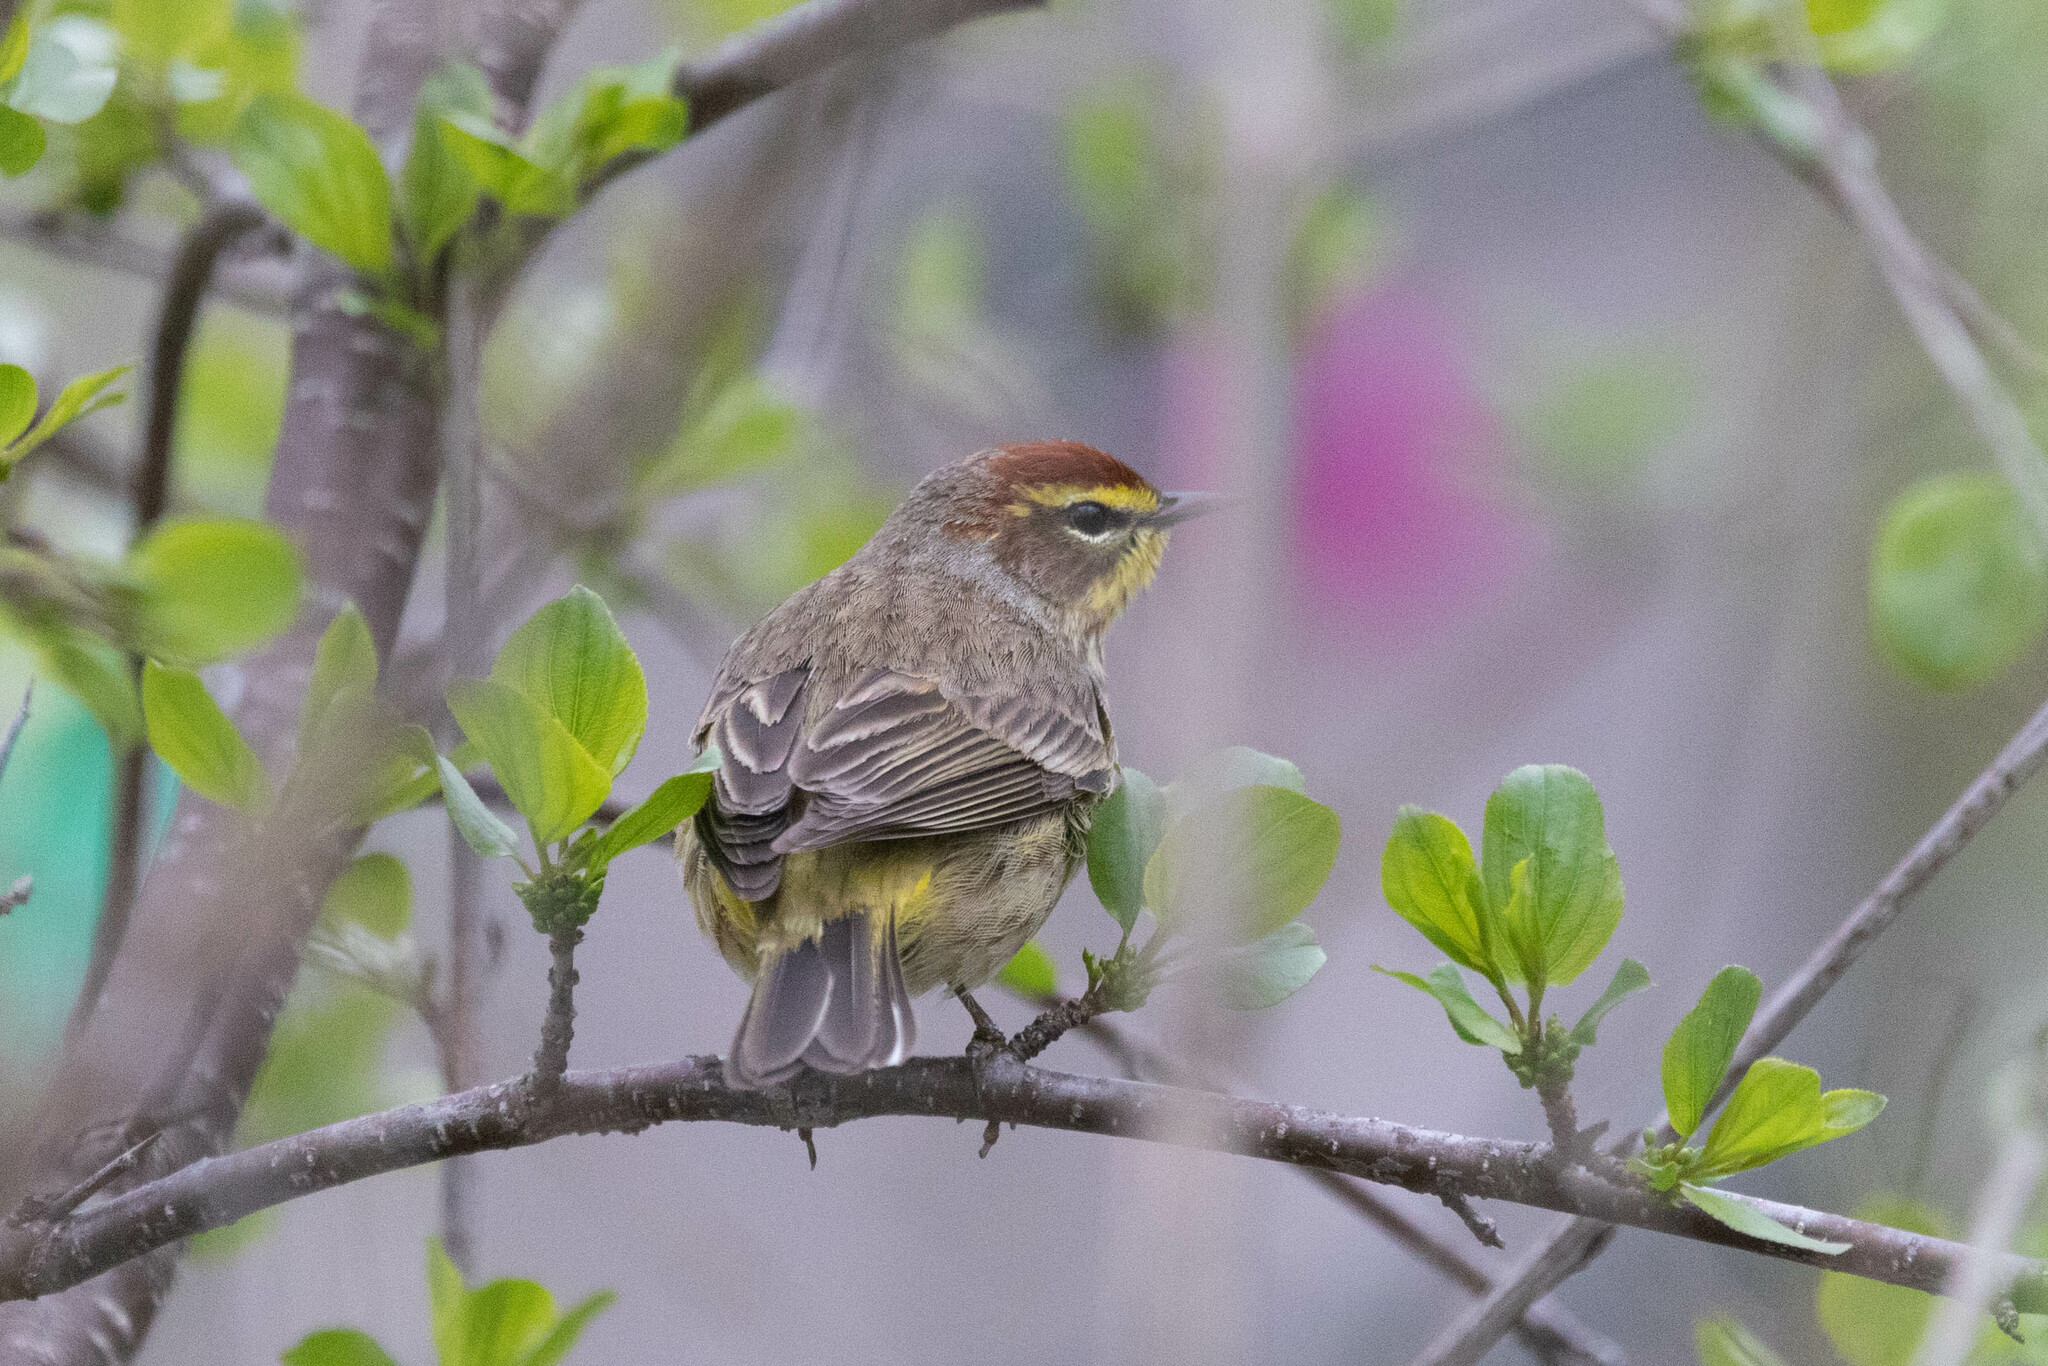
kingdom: Animalia
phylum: Chordata
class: Aves
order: Passeriformes
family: Parulidae
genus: Setophaga
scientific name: Setophaga palmarum
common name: Palm warbler
